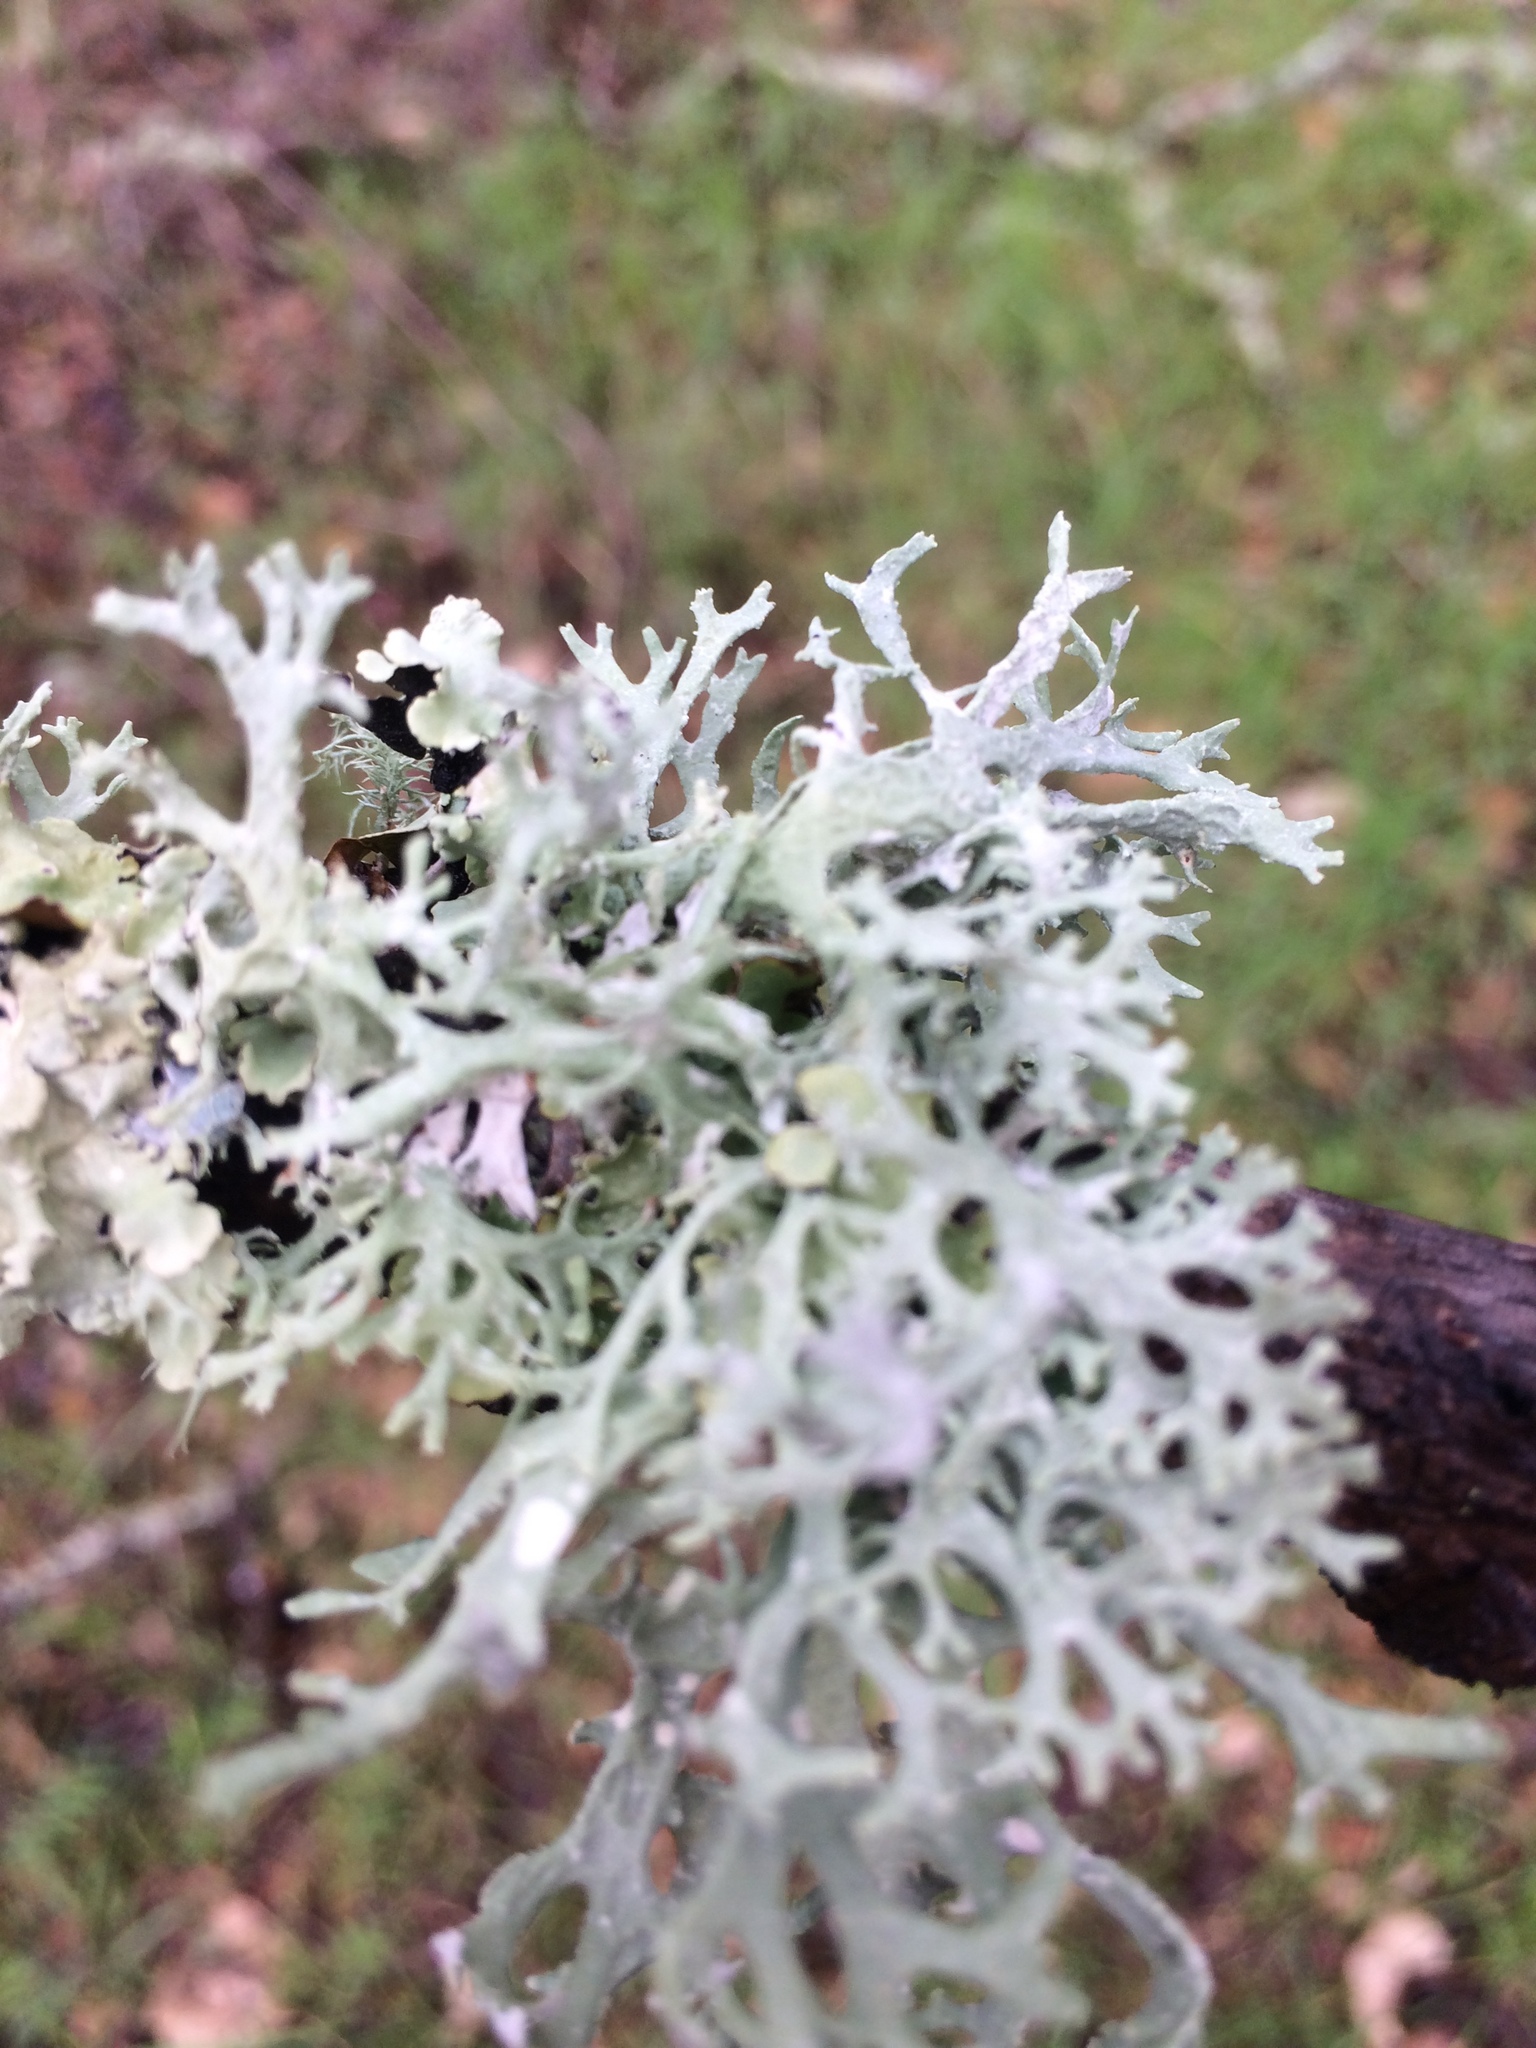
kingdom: Fungi
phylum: Ascomycota
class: Lecanoromycetes
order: Lecanorales
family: Parmeliaceae
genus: Evernia
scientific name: Evernia prunastri
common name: Oak moss
